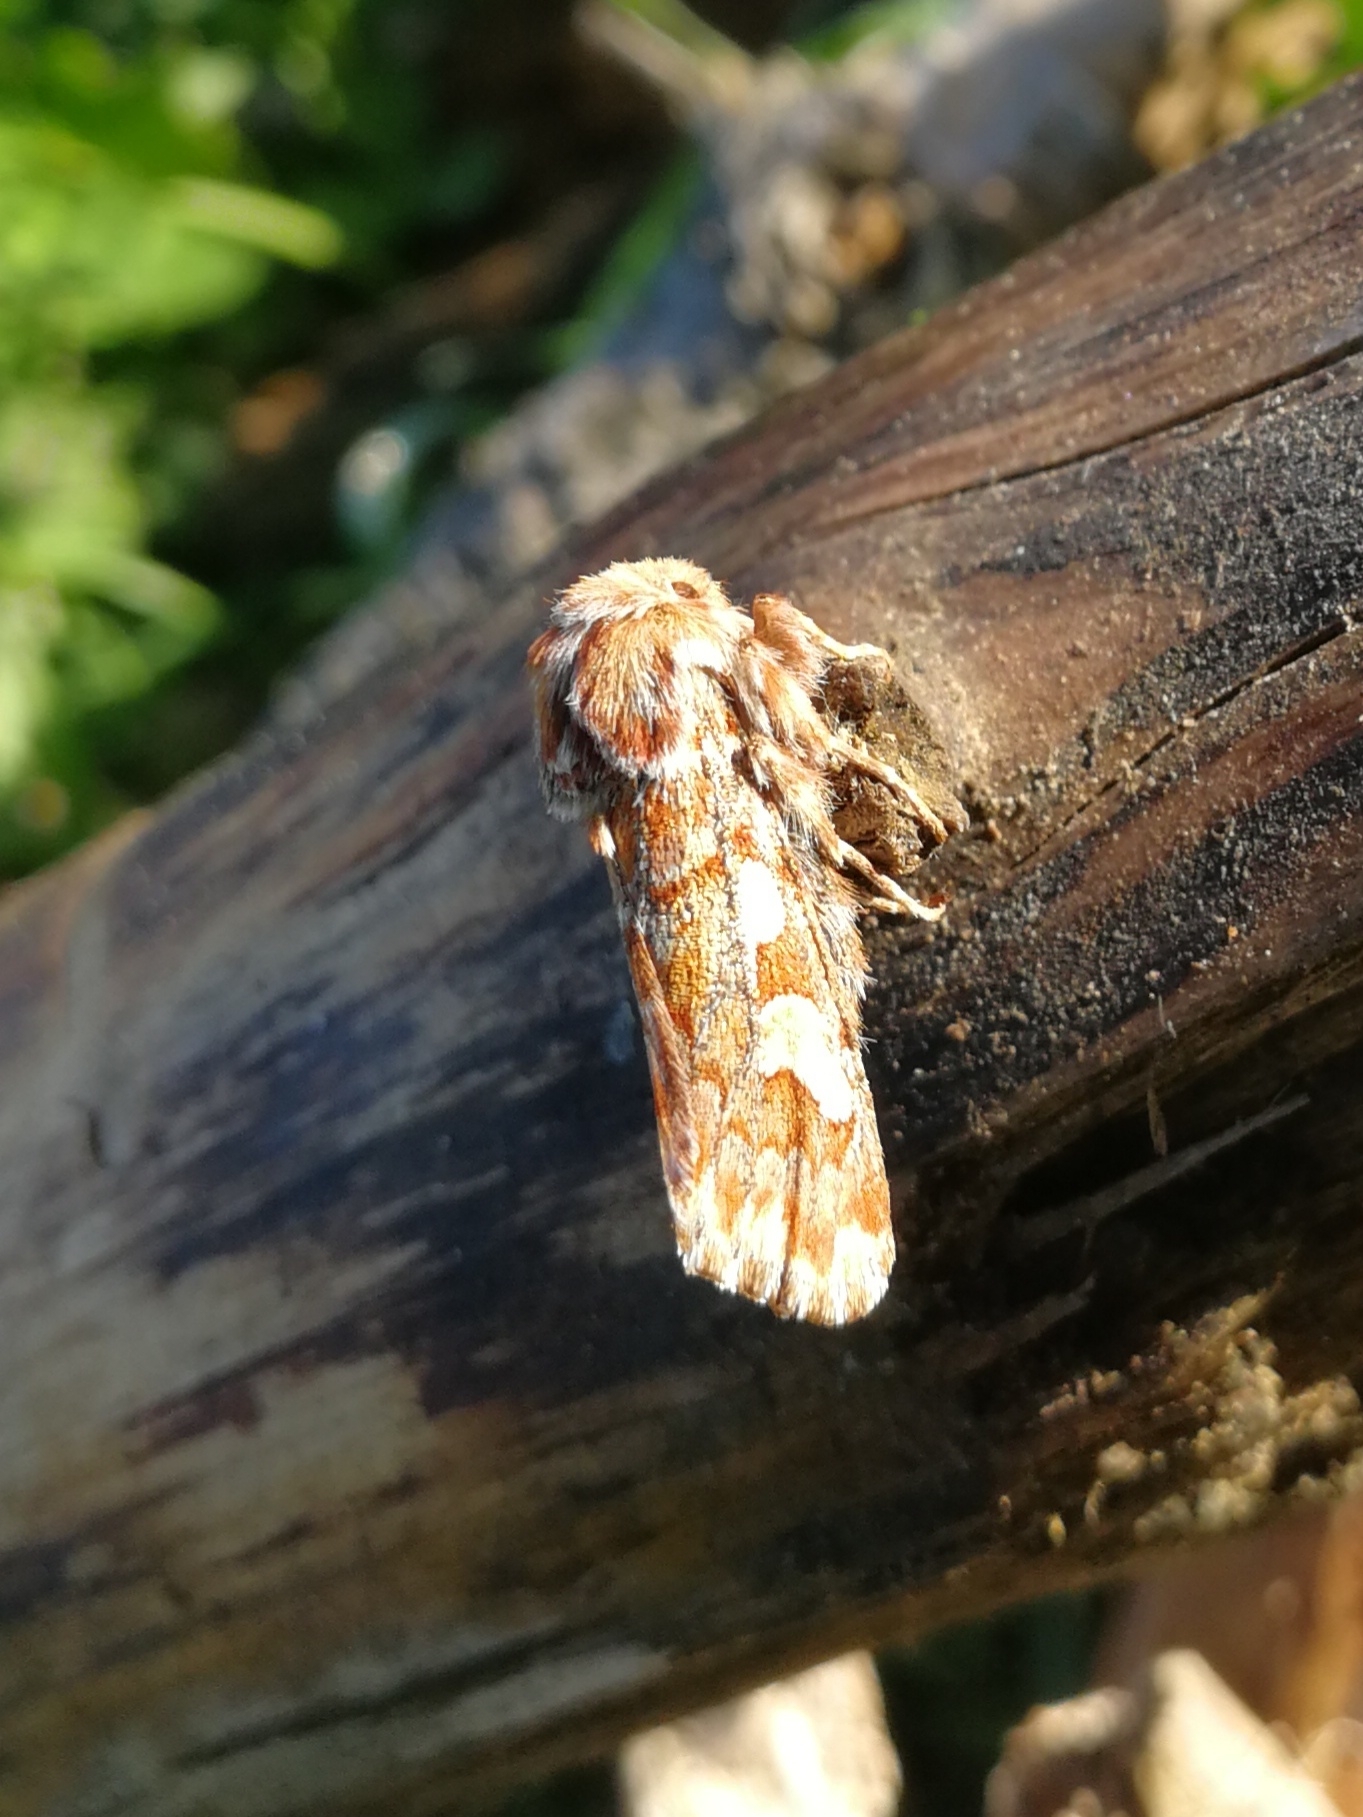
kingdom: Animalia
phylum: Arthropoda
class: Insecta
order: Lepidoptera
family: Noctuidae
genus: Panolis
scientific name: Panolis flammea
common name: Pine beauty
